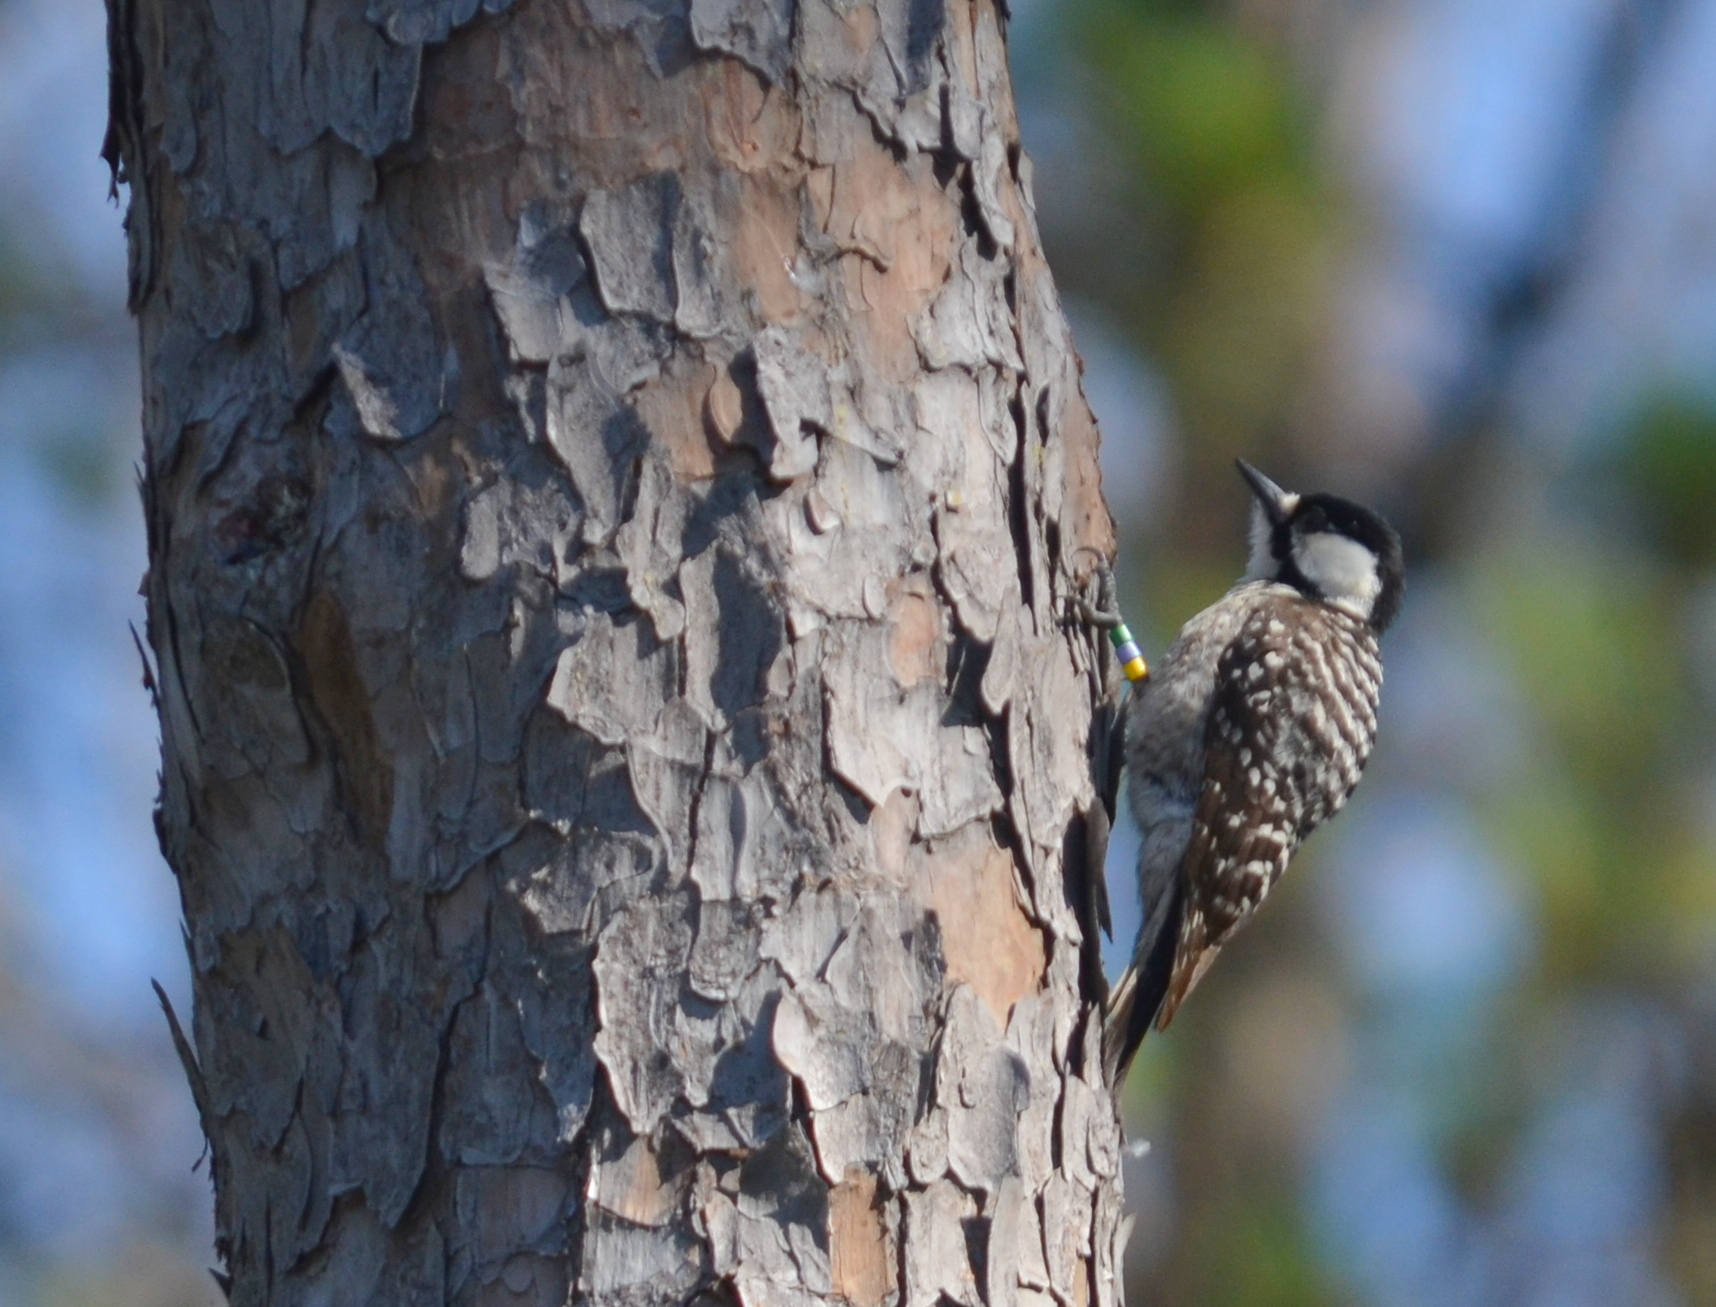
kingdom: Animalia
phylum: Chordata
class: Aves
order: Piciformes
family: Picidae
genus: Leuconotopicus
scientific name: Leuconotopicus borealis
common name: Red-cockaded woodpecker
